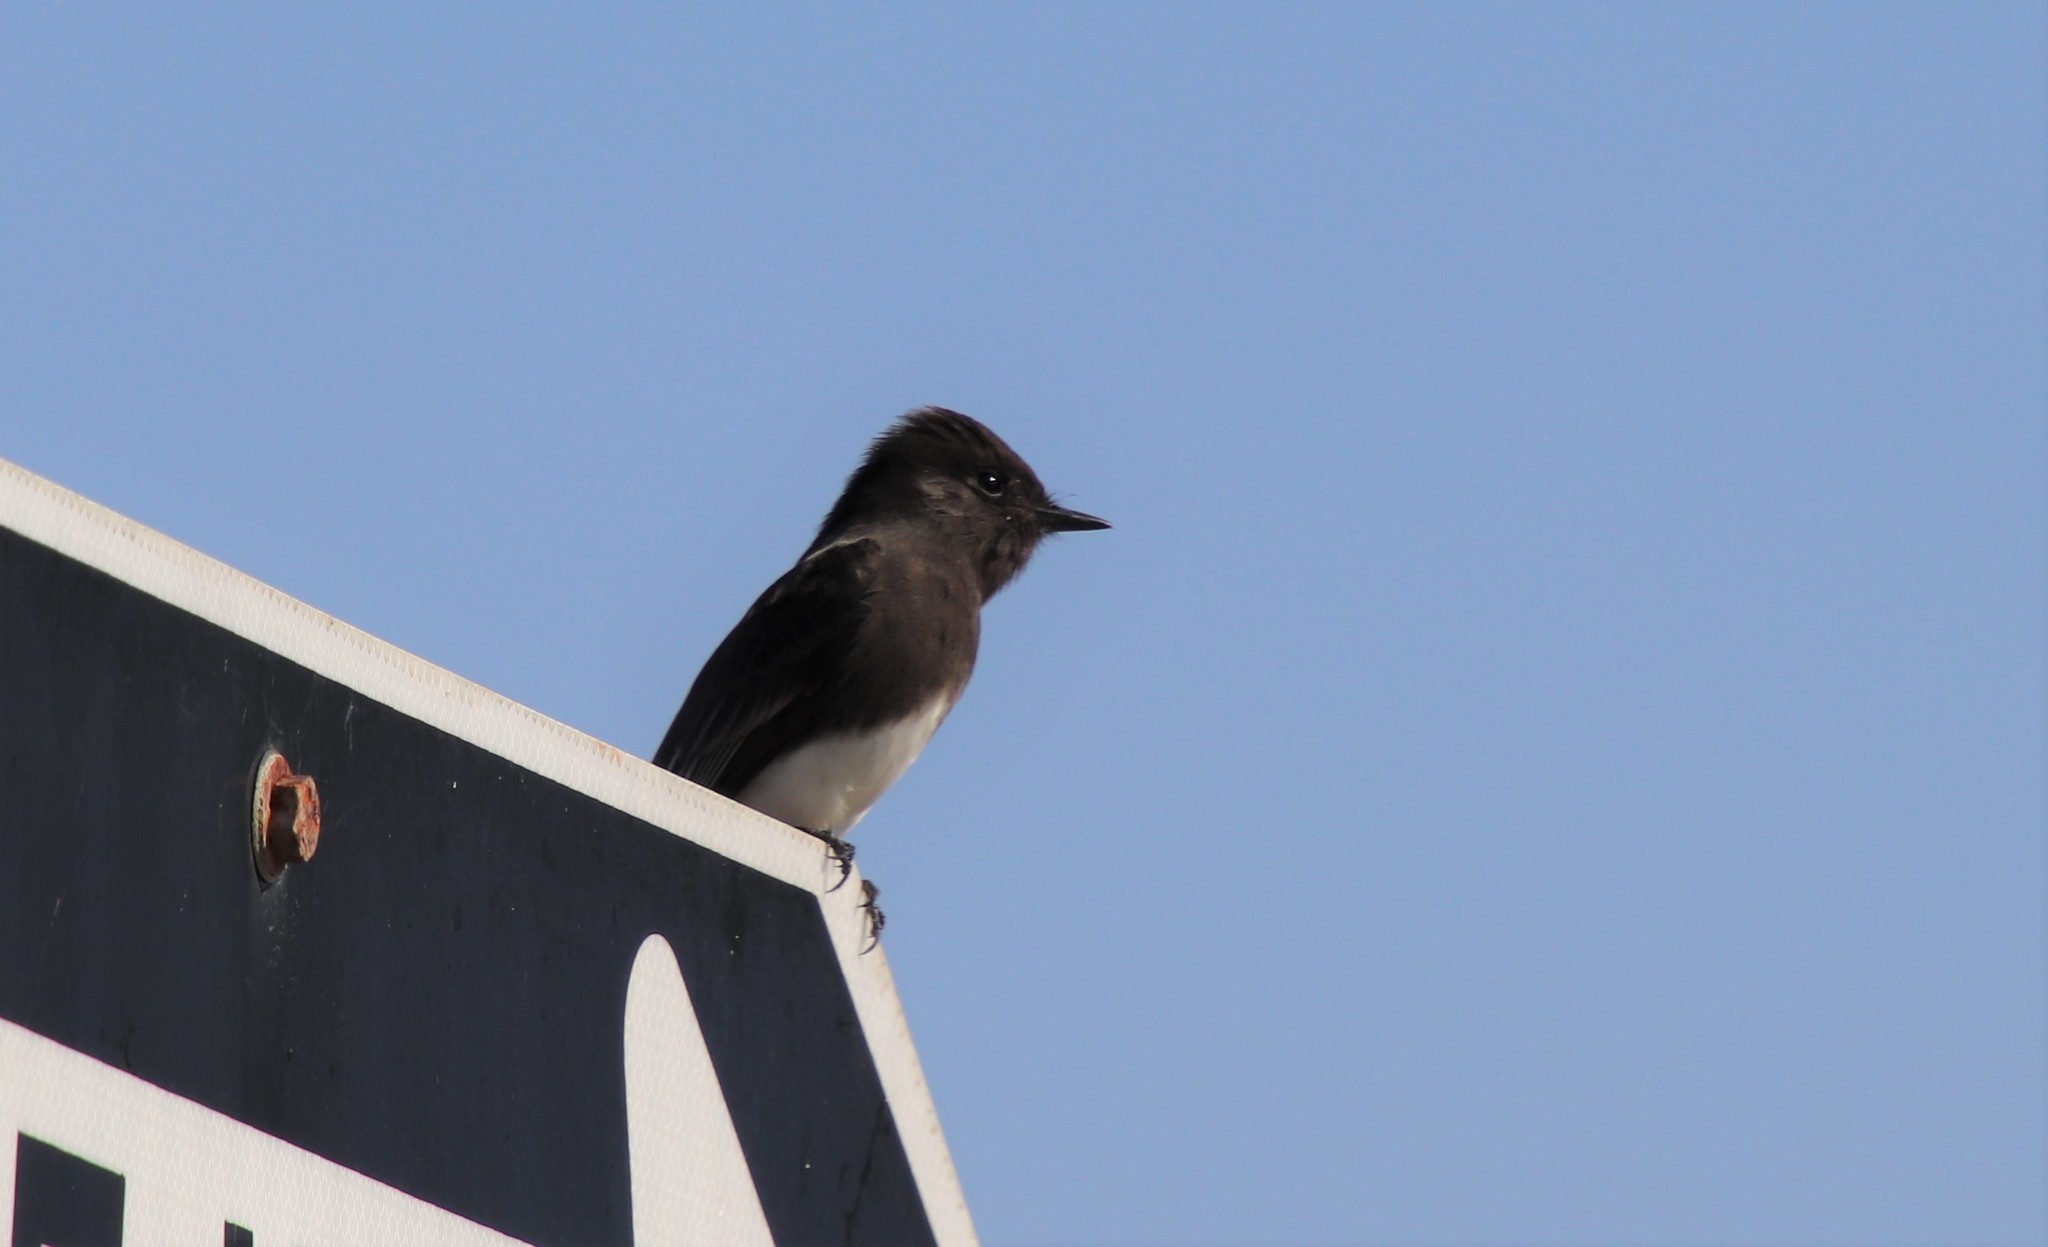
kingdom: Animalia
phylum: Chordata
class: Aves
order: Passeriformes
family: Tyrannidae
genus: Sayornis
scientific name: Sayornis nigricans
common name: Black phoebe
